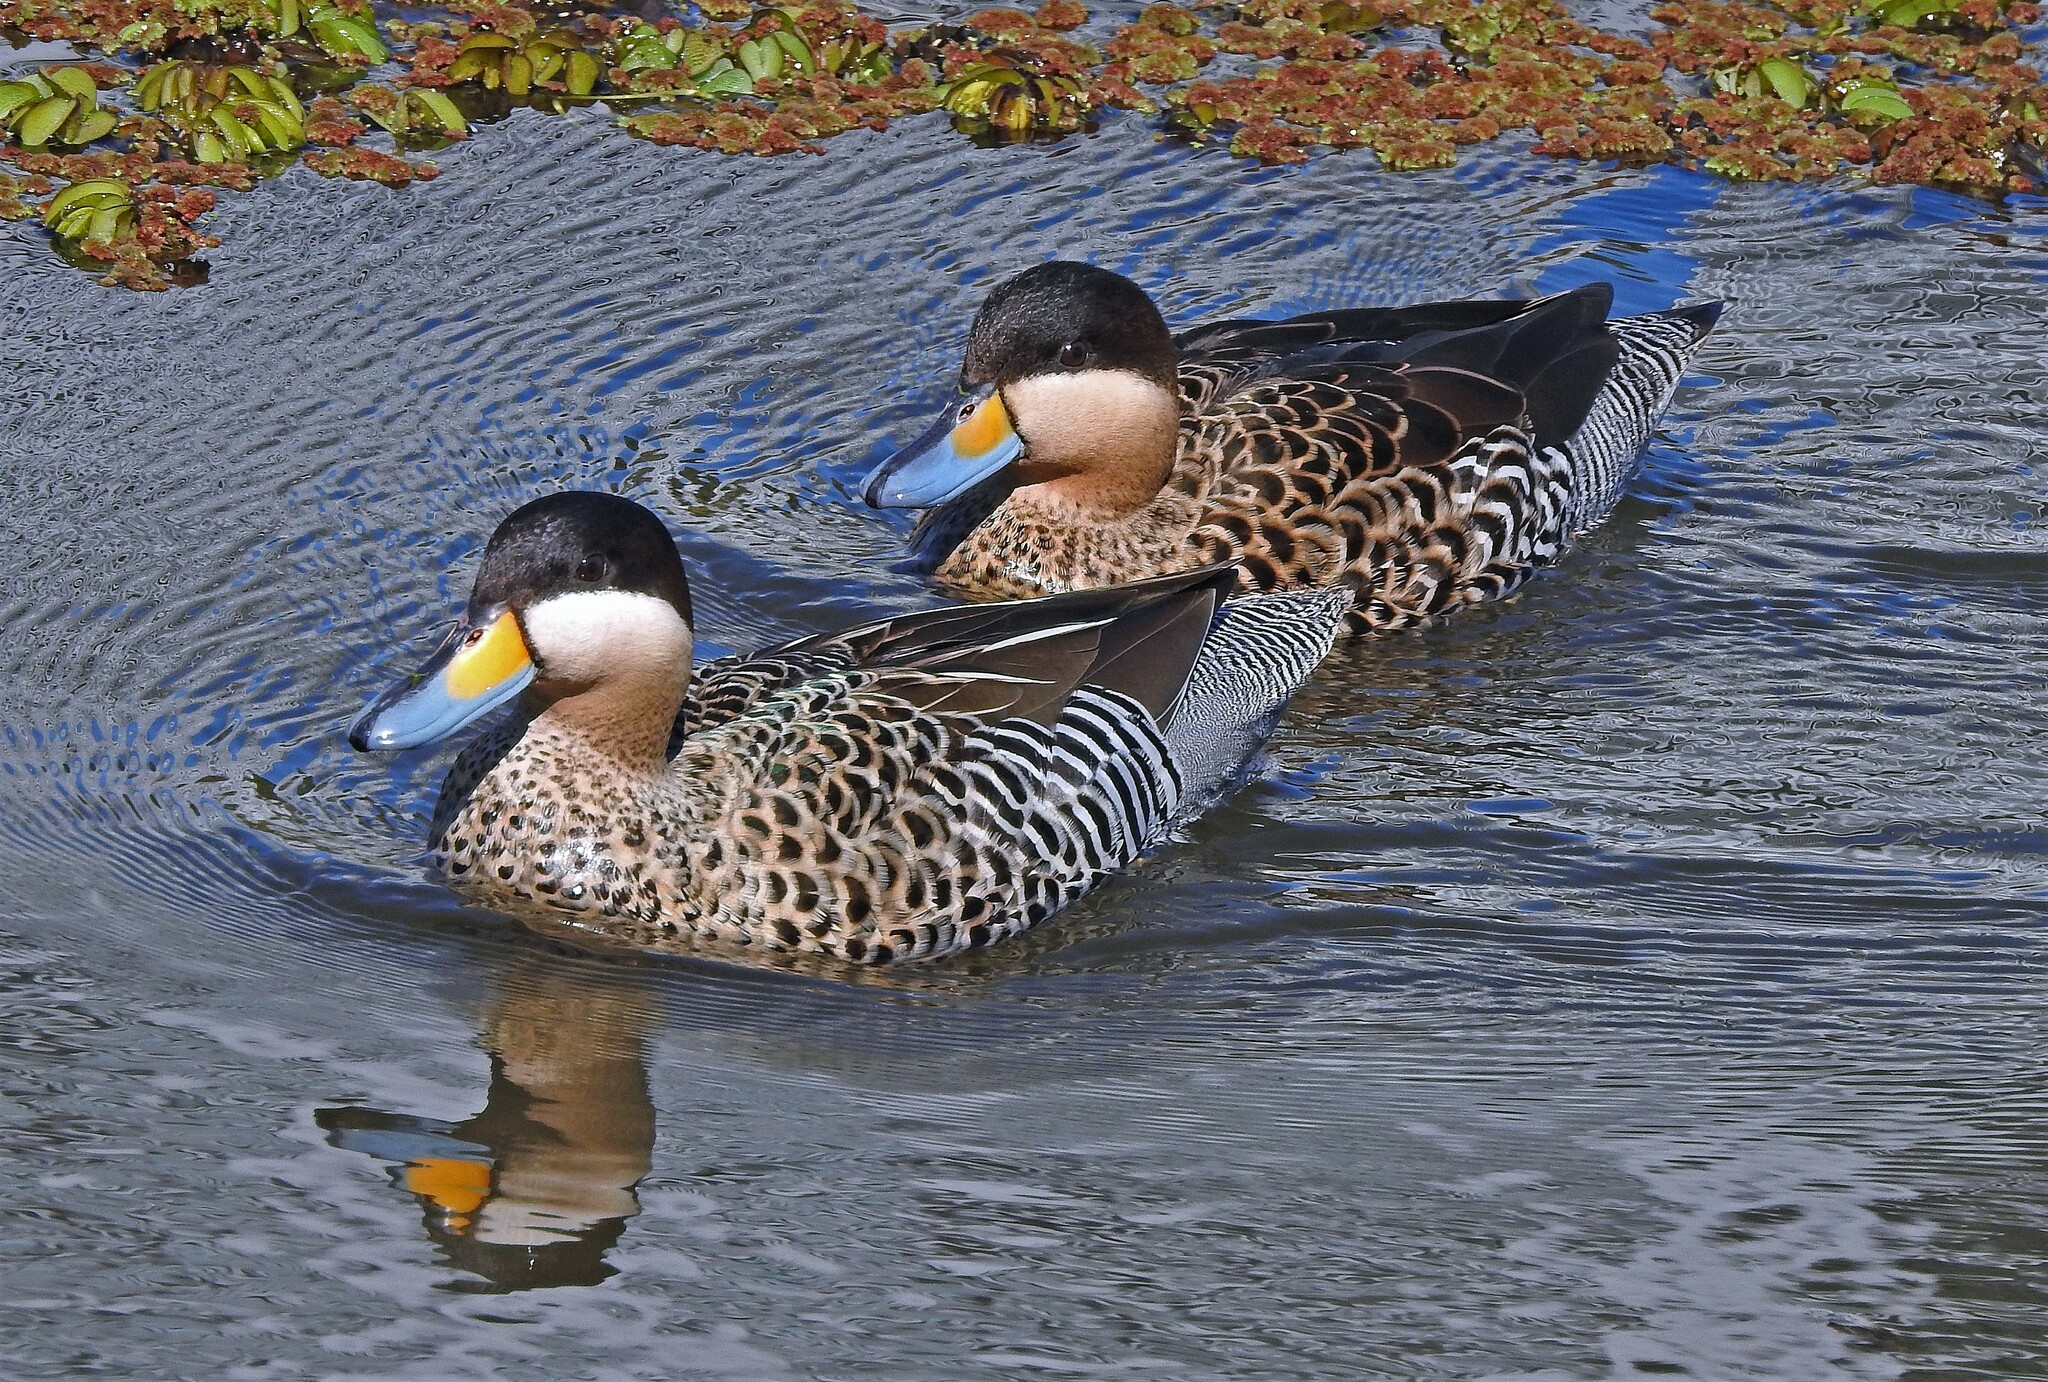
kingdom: Animalia
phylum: Chordata
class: Aves
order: Anseriformes
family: Anatidae
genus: Spatula
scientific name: Spatula versicolor
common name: Silver teal
